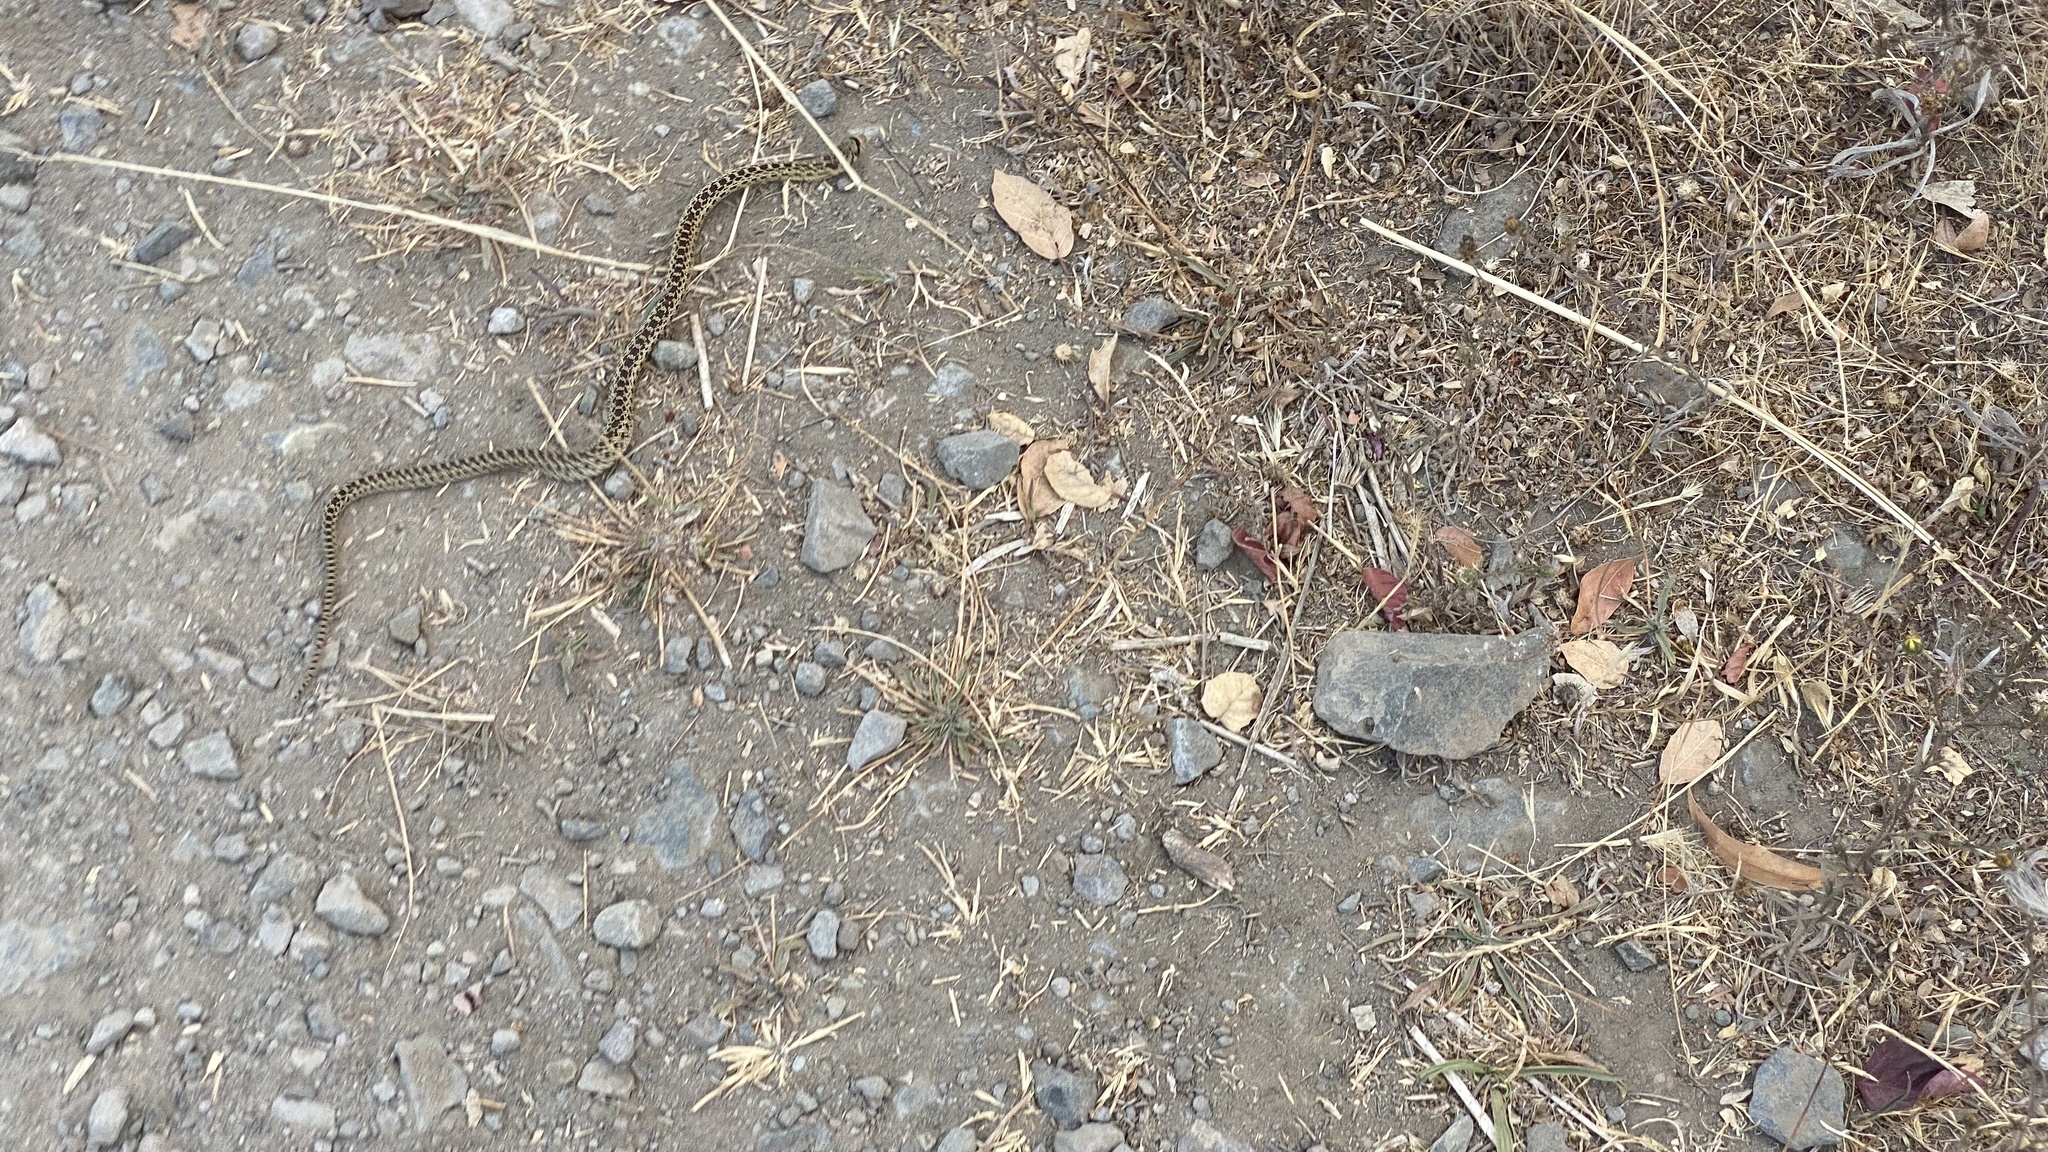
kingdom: Animalia
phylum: Chordata
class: Squamata
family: Colubridae
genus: Pituophis
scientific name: Pituophis catenifer
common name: Gopher snake
